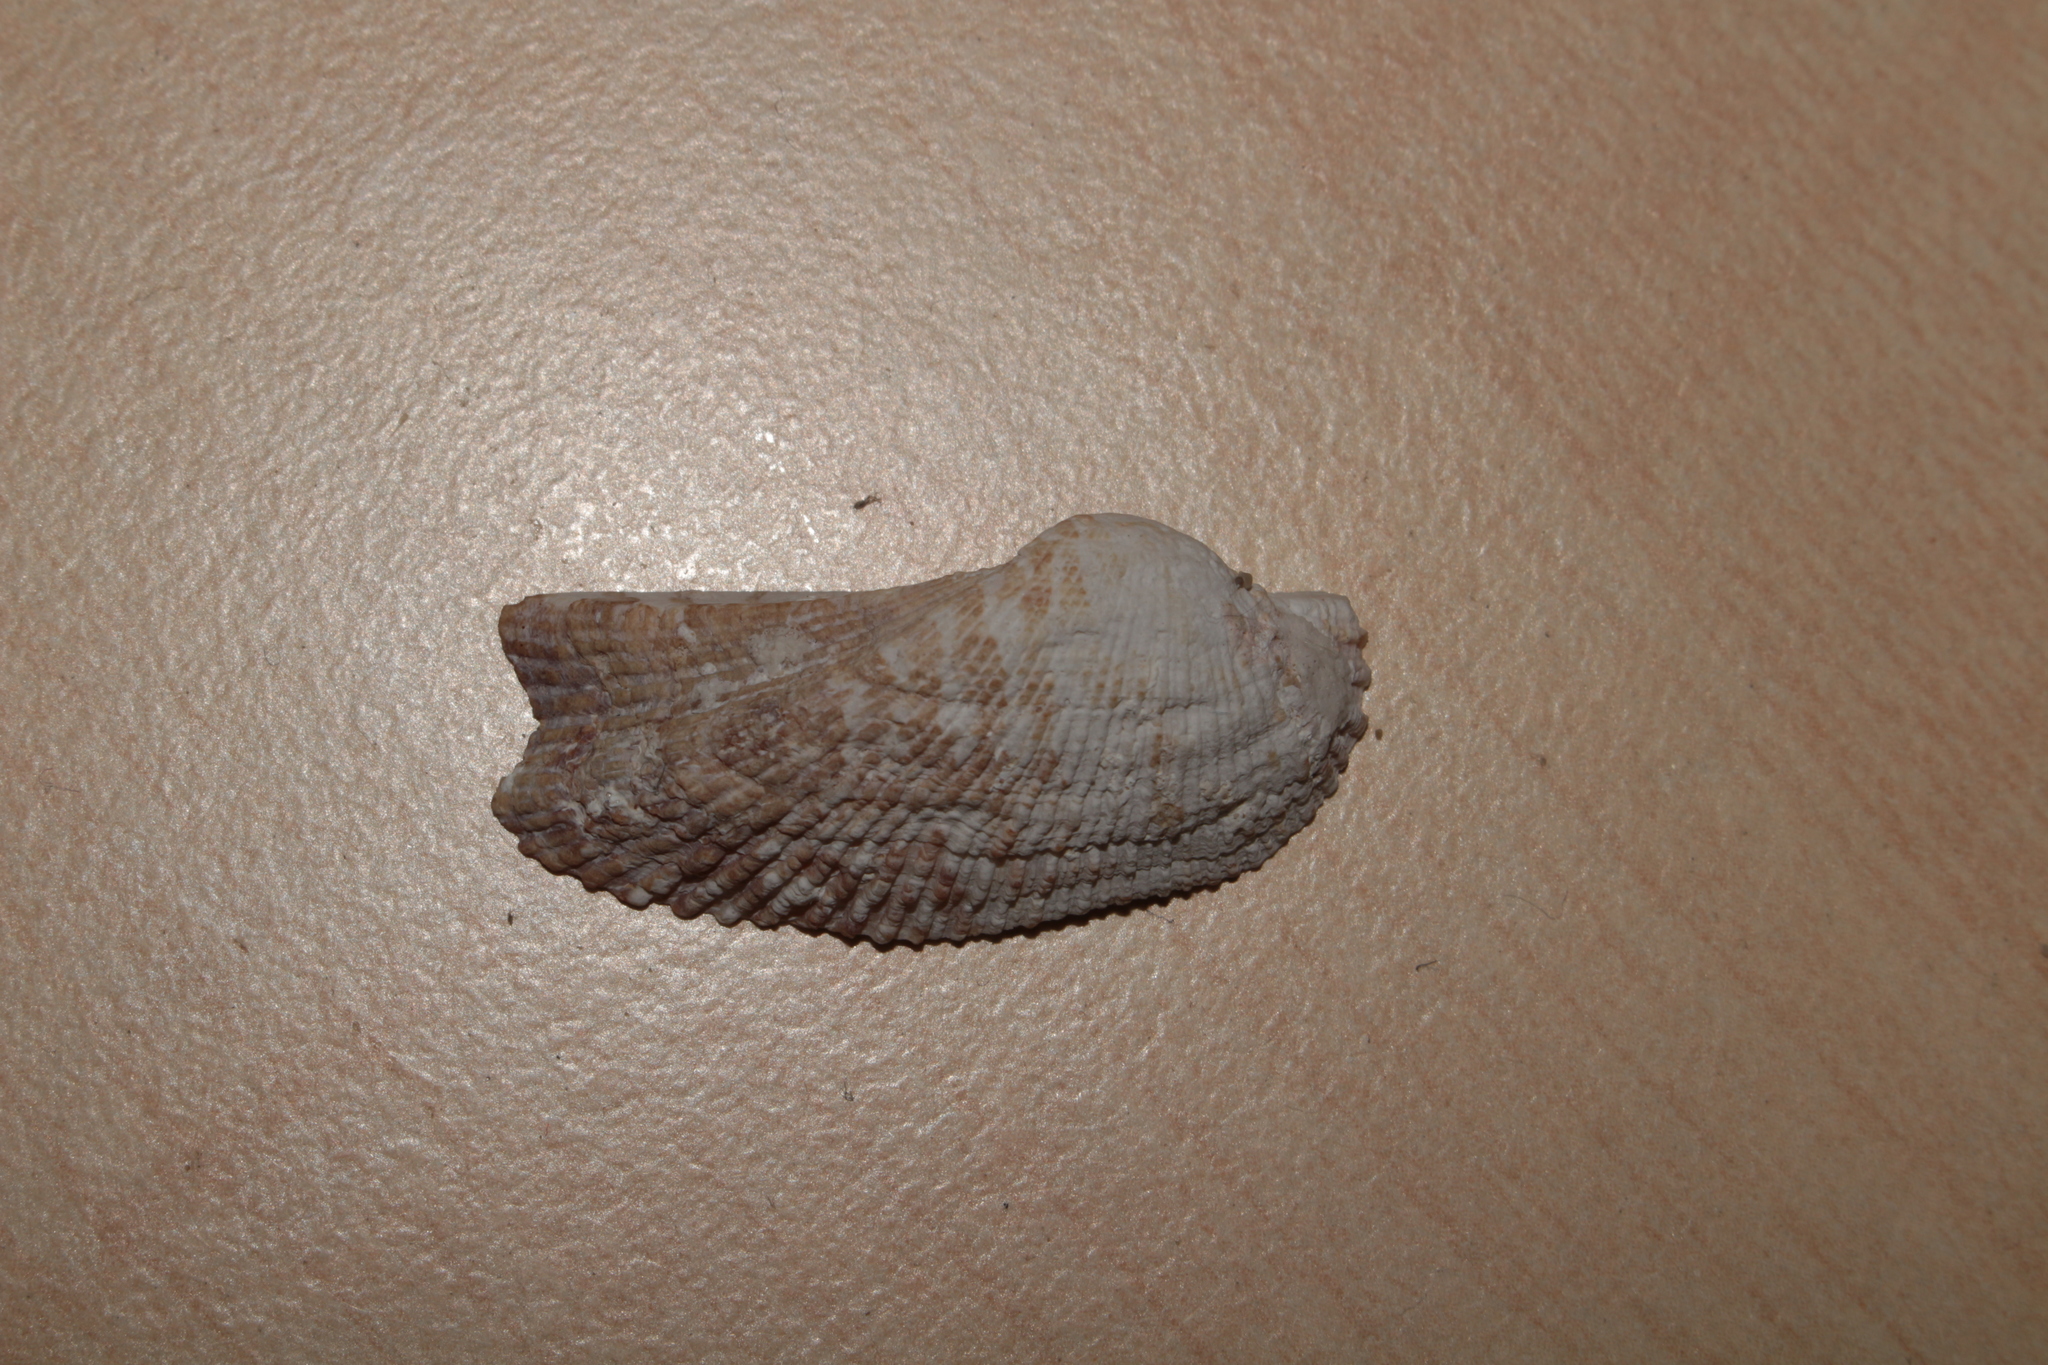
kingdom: Animalia
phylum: Mollusca
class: Bivalvia
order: Arcida
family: Arcidae
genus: Arca
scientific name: Arca noae
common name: Noah's arch
